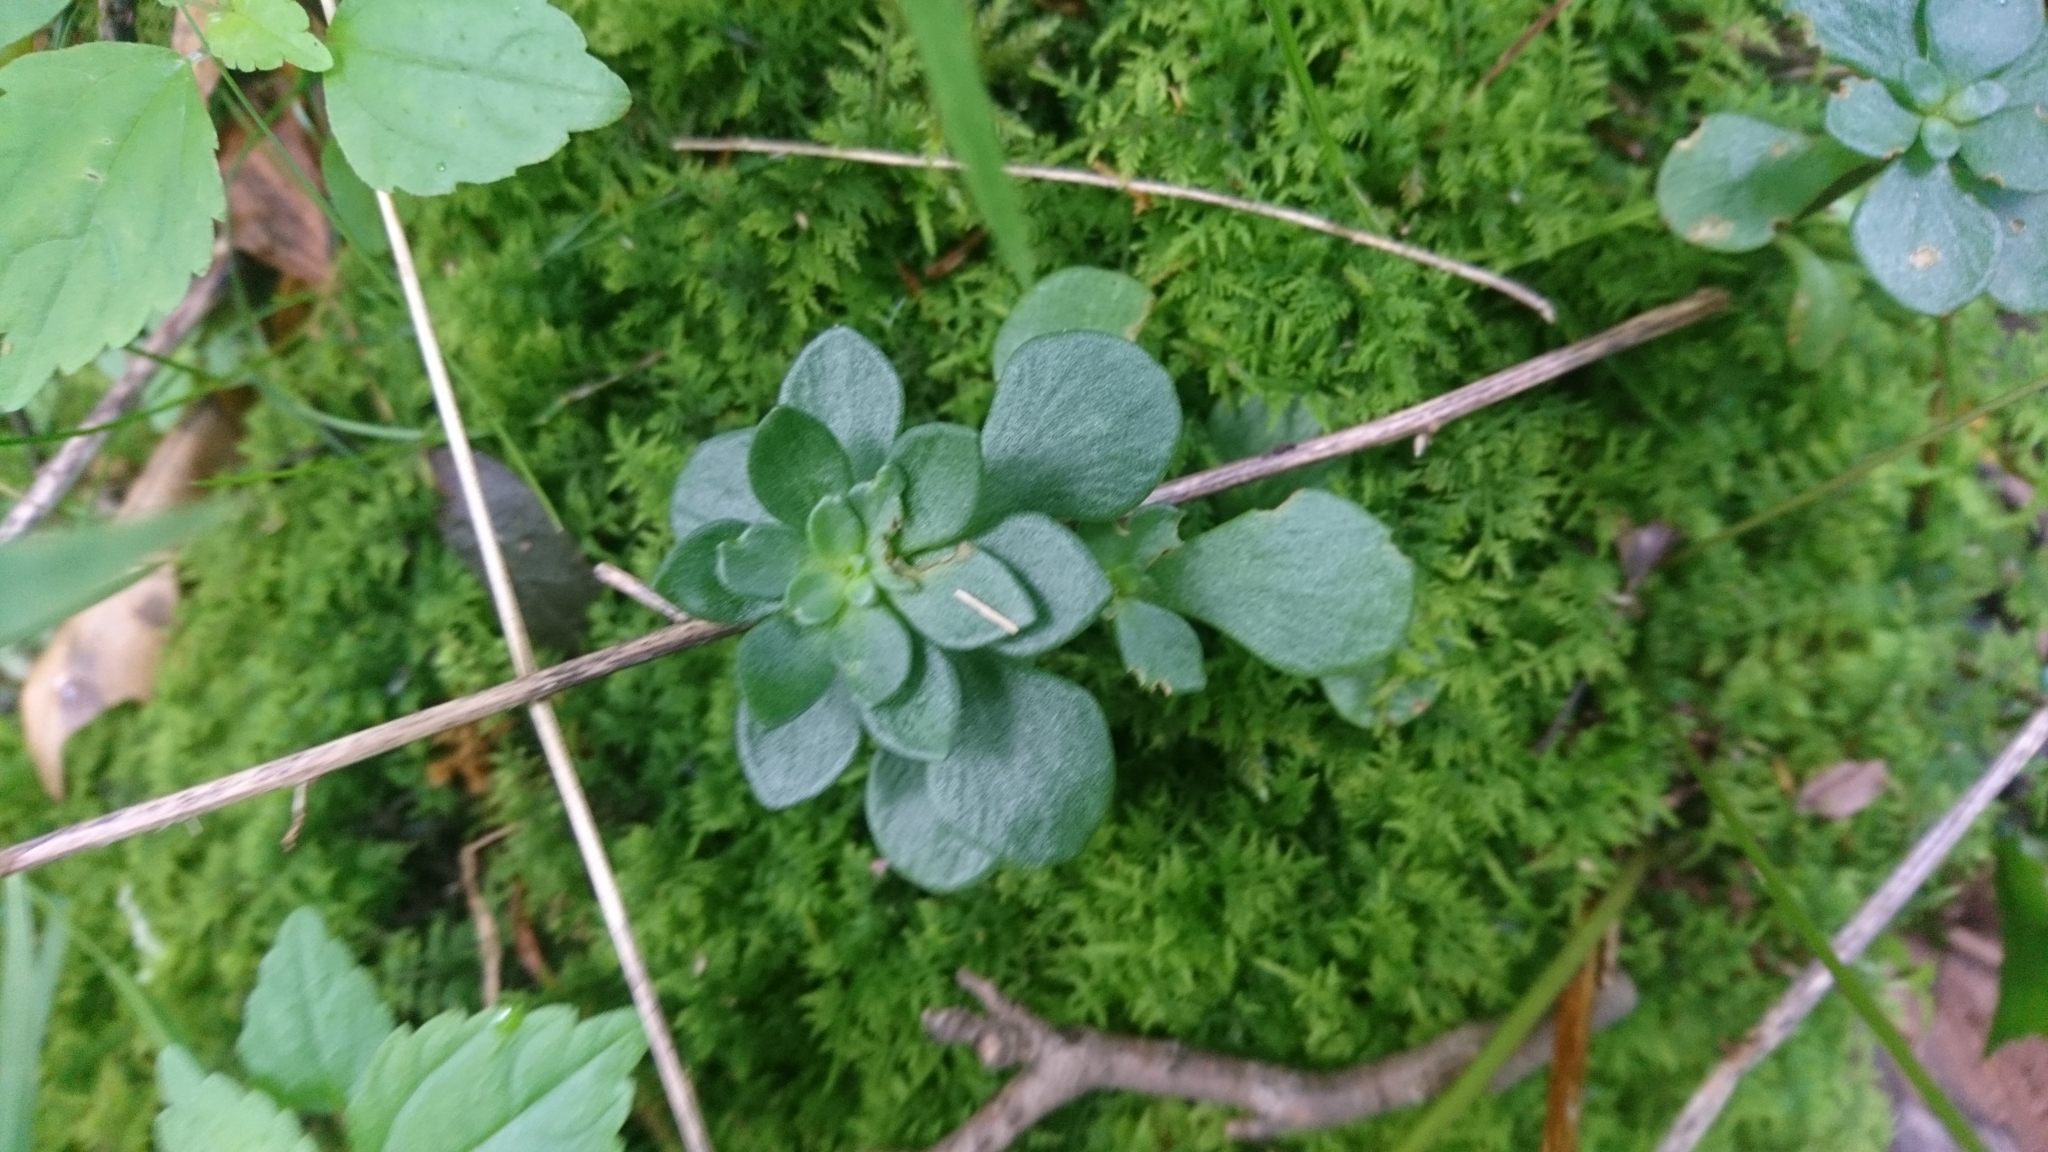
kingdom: Plantae
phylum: Tracheophyta
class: Magnoliopsida
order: Saxifragales
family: Crassulaceae
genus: Sedum
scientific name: Sedum ternatum
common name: Wild stonecrop
